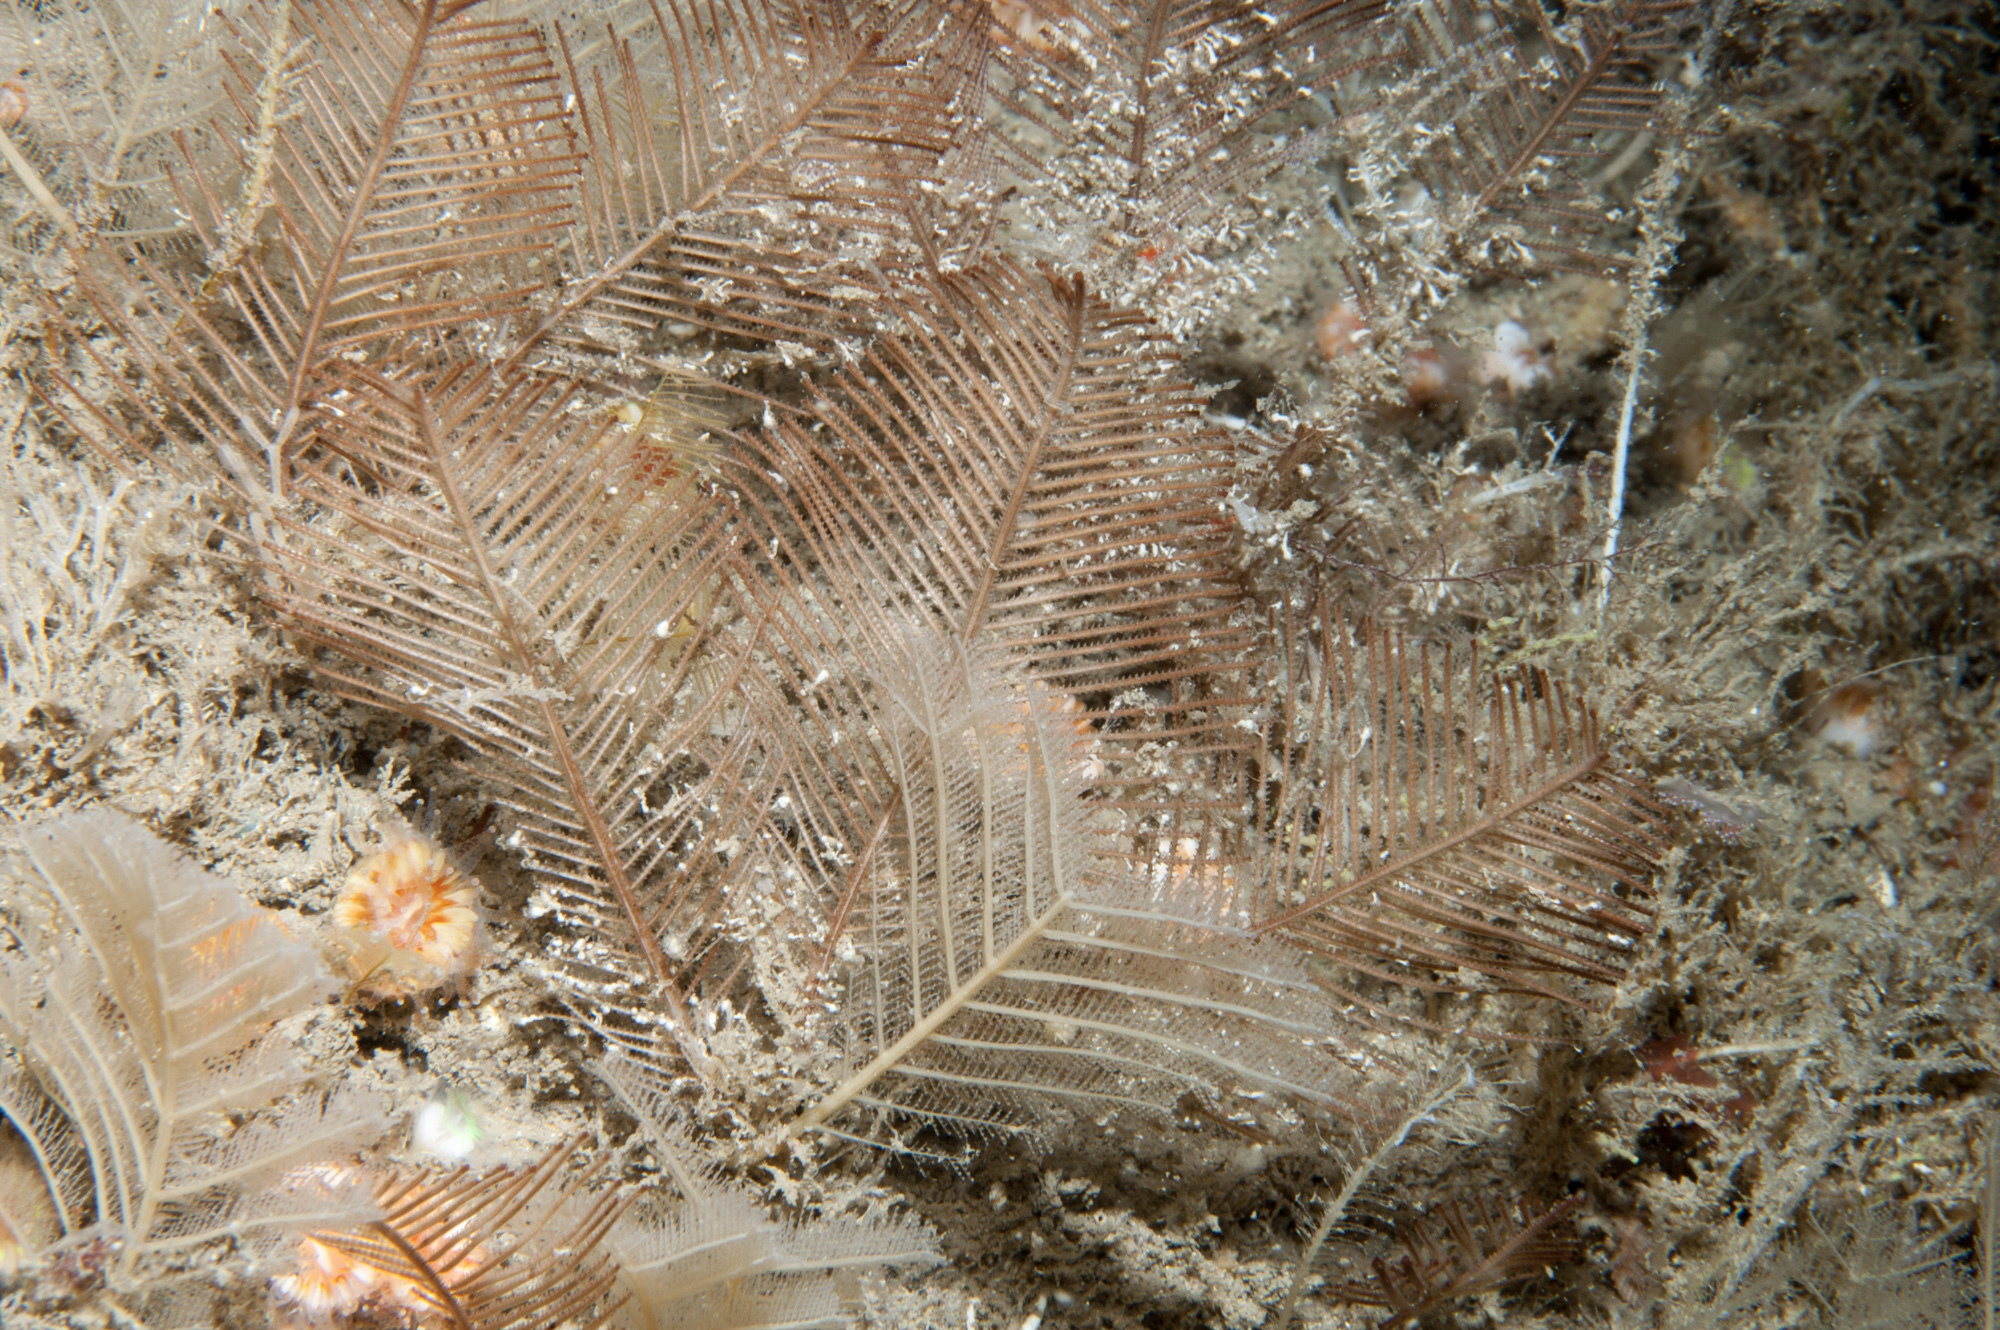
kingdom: Animalia
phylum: Cnidaria
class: Hydrozoa
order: Leptothecata
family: Sertulariidae
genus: Diphasia
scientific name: Diphasia alata
